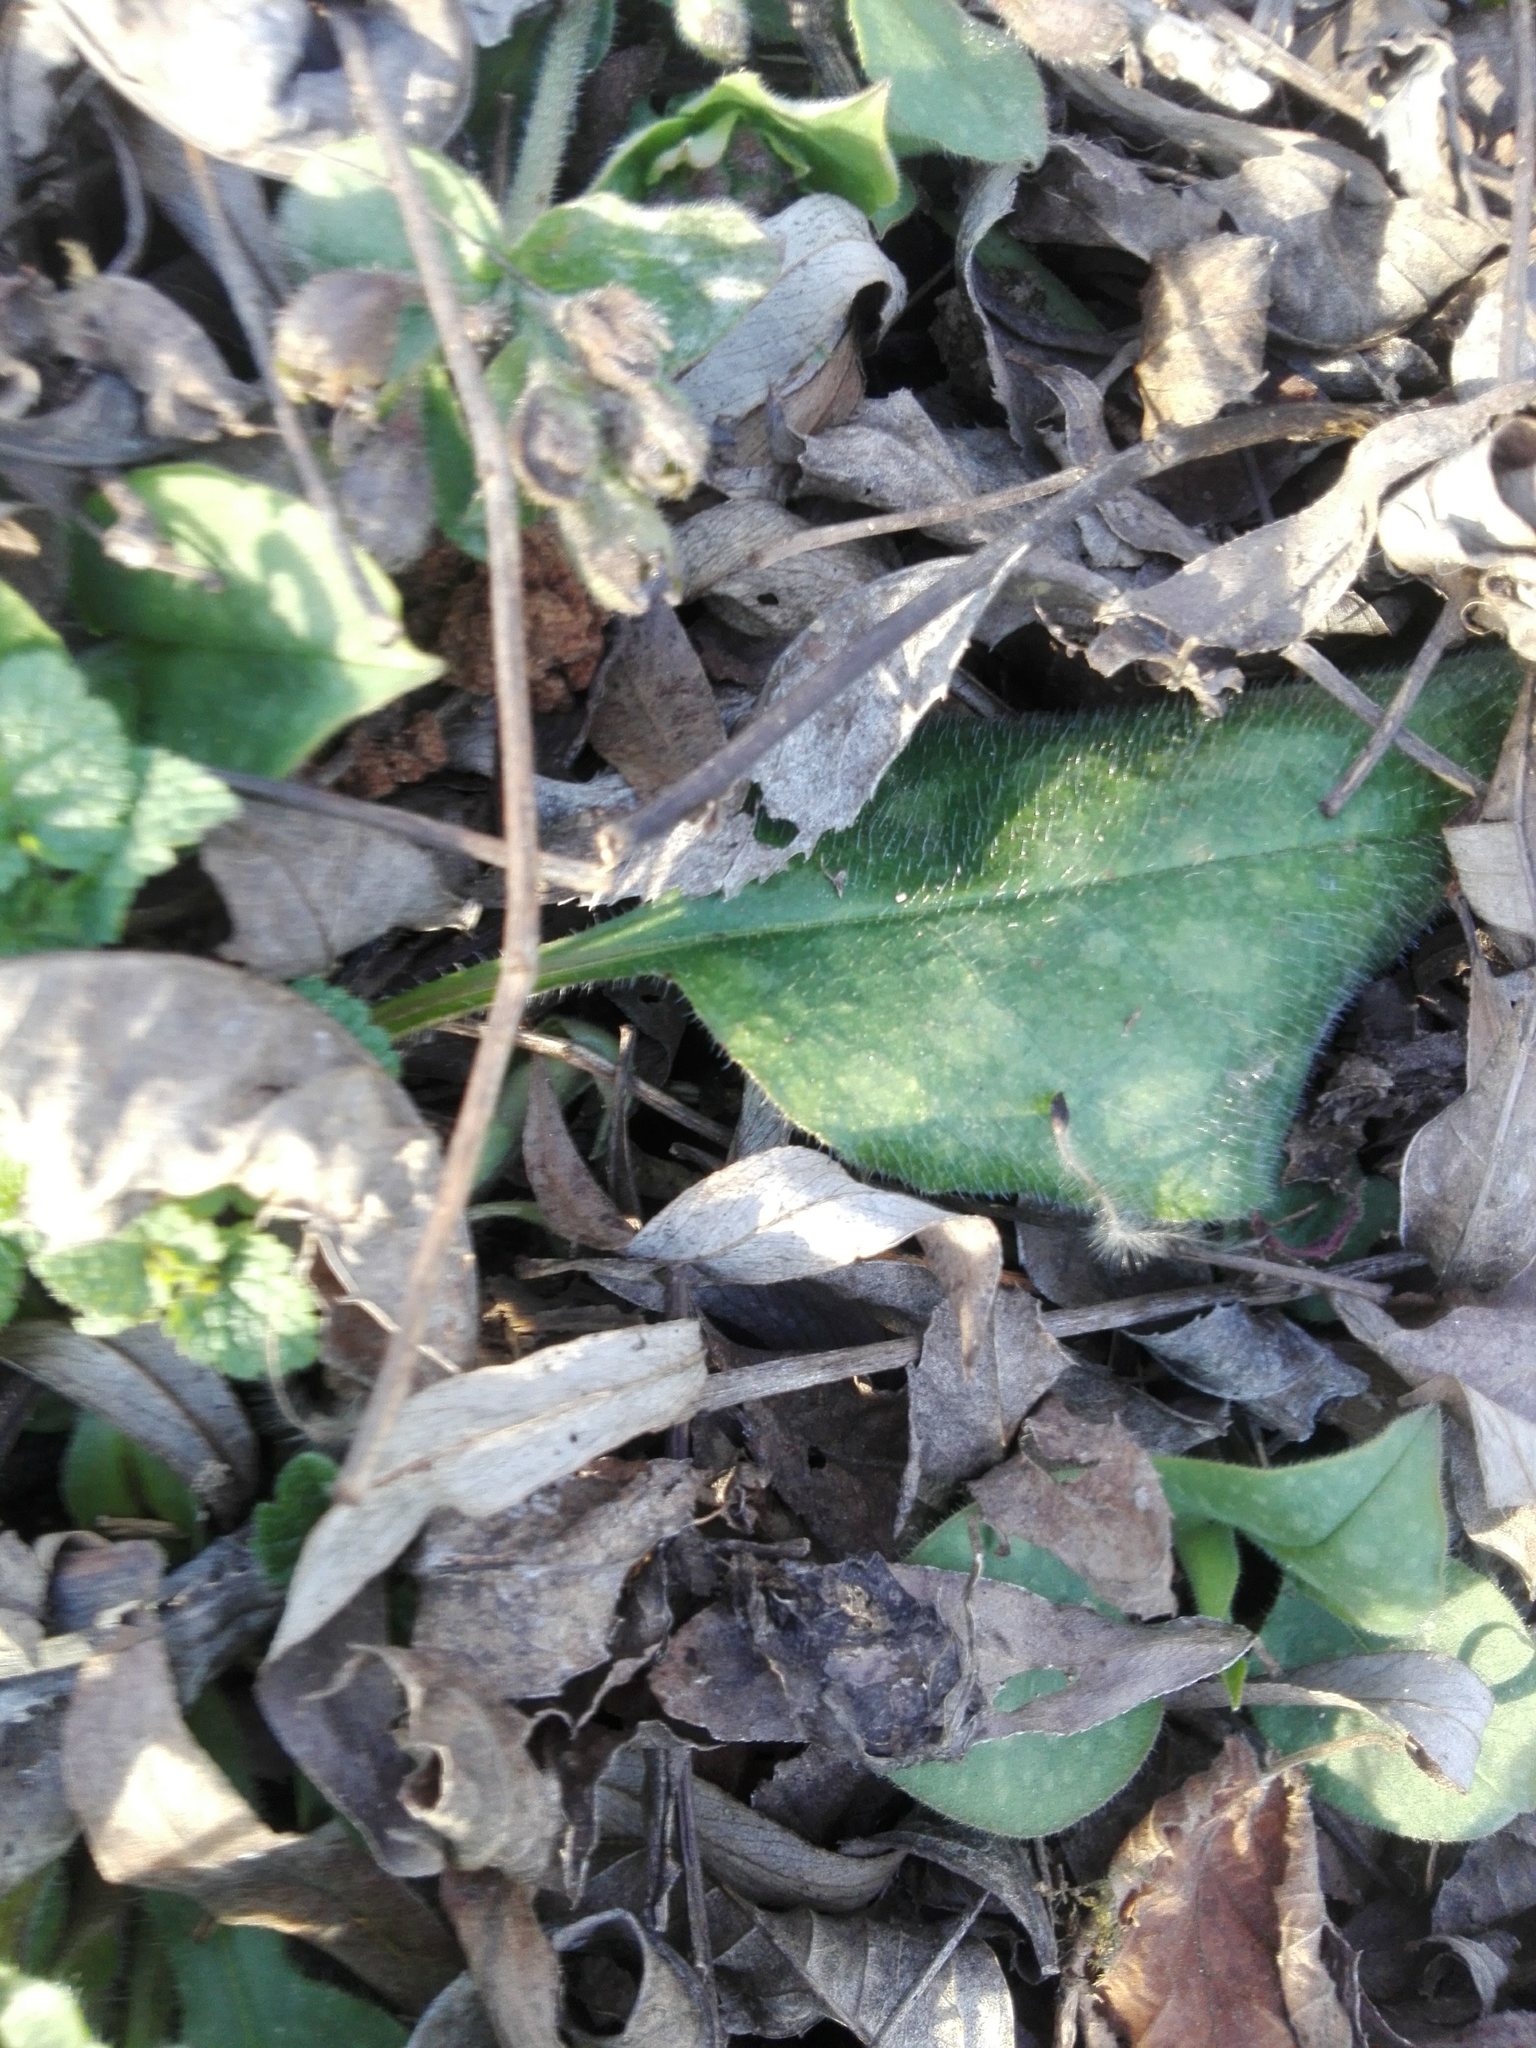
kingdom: Plantae
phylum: Tracheophyta
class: Magnoliopsida
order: Boraginales
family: Boraginaceae
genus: Pulmonaria
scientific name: Pulmonaria officinalis
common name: Lungwort
